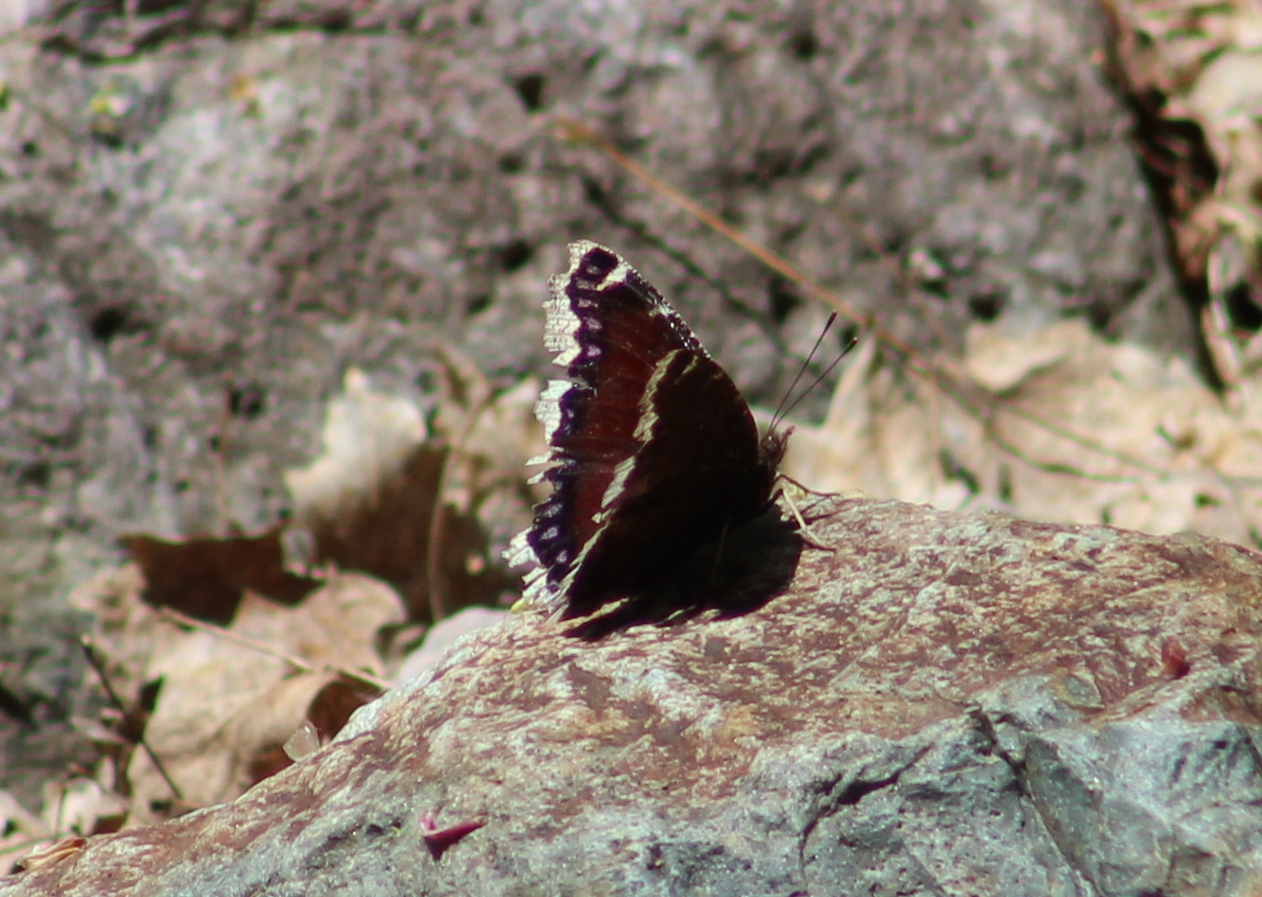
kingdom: Animalia
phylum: Arthropoda
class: Insecta
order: Lepidoptera
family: Nymphalidae
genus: Nymphalis
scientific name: Nymphalis antiopa
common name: Camberwell beauty
